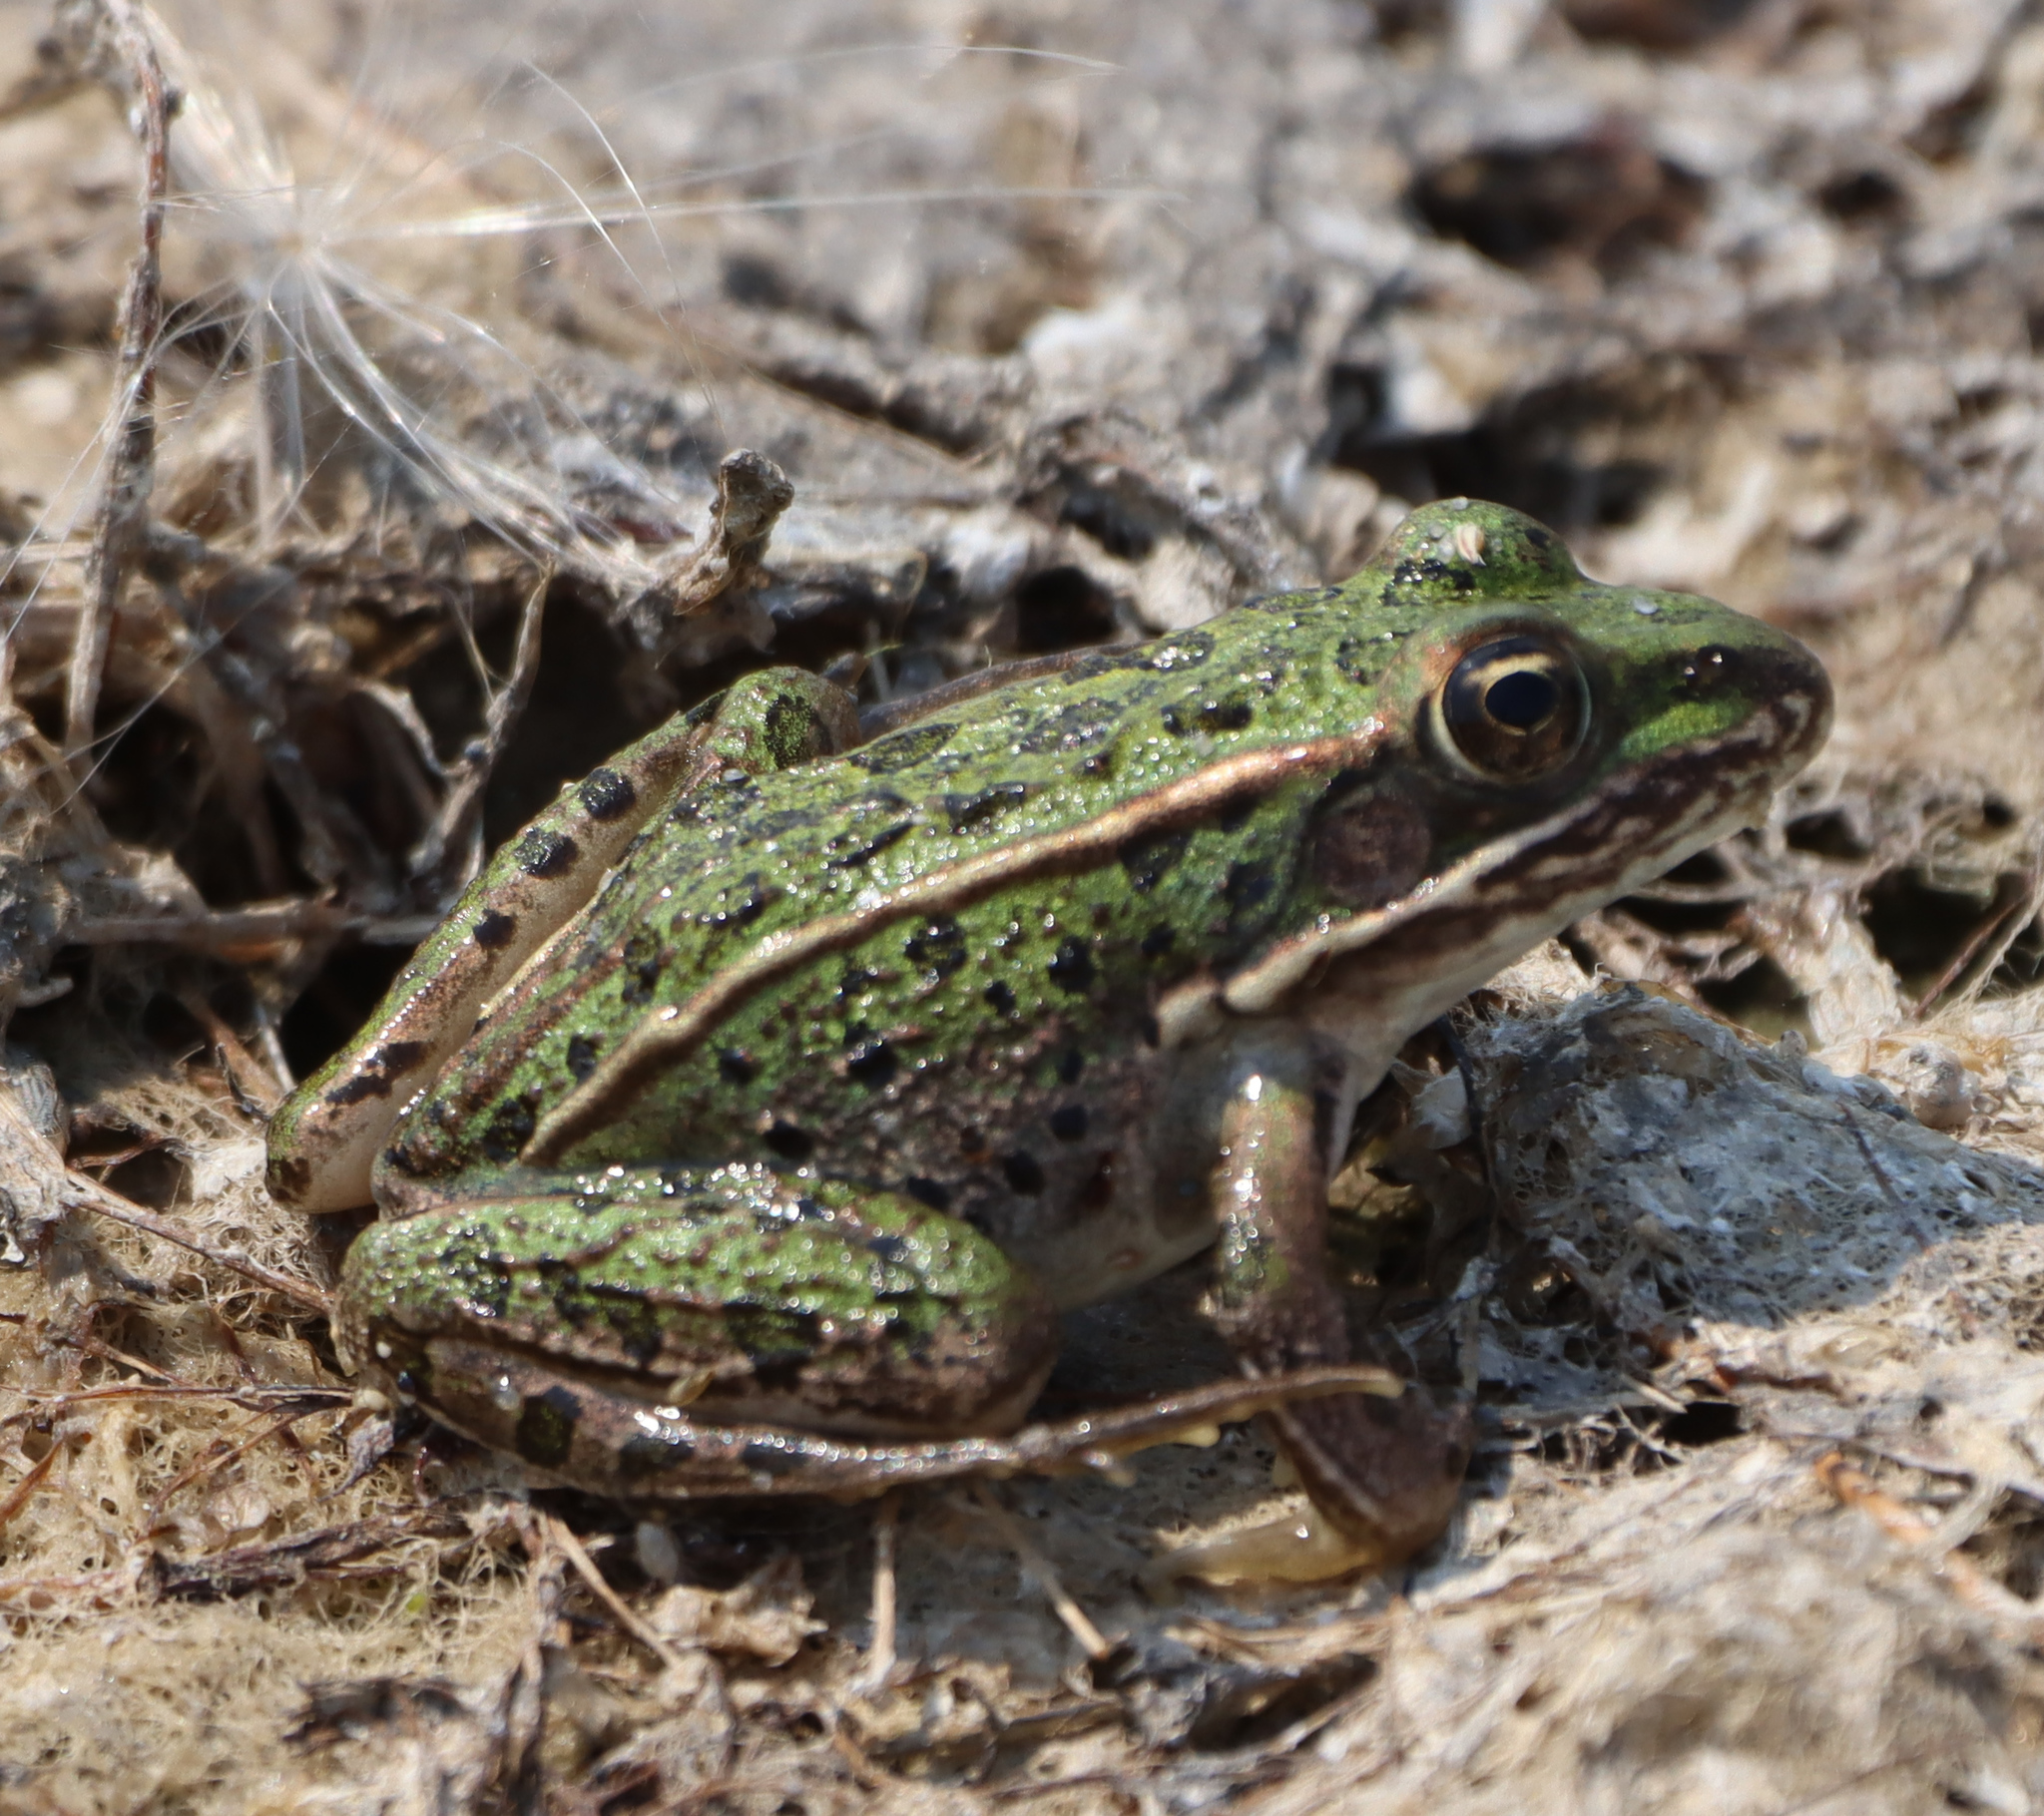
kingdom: Animalia
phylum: Chordata
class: Amphibia
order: Anura
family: Ranidae
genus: Lithobates
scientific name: Lithobates pipiens
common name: Northern leopard frog
